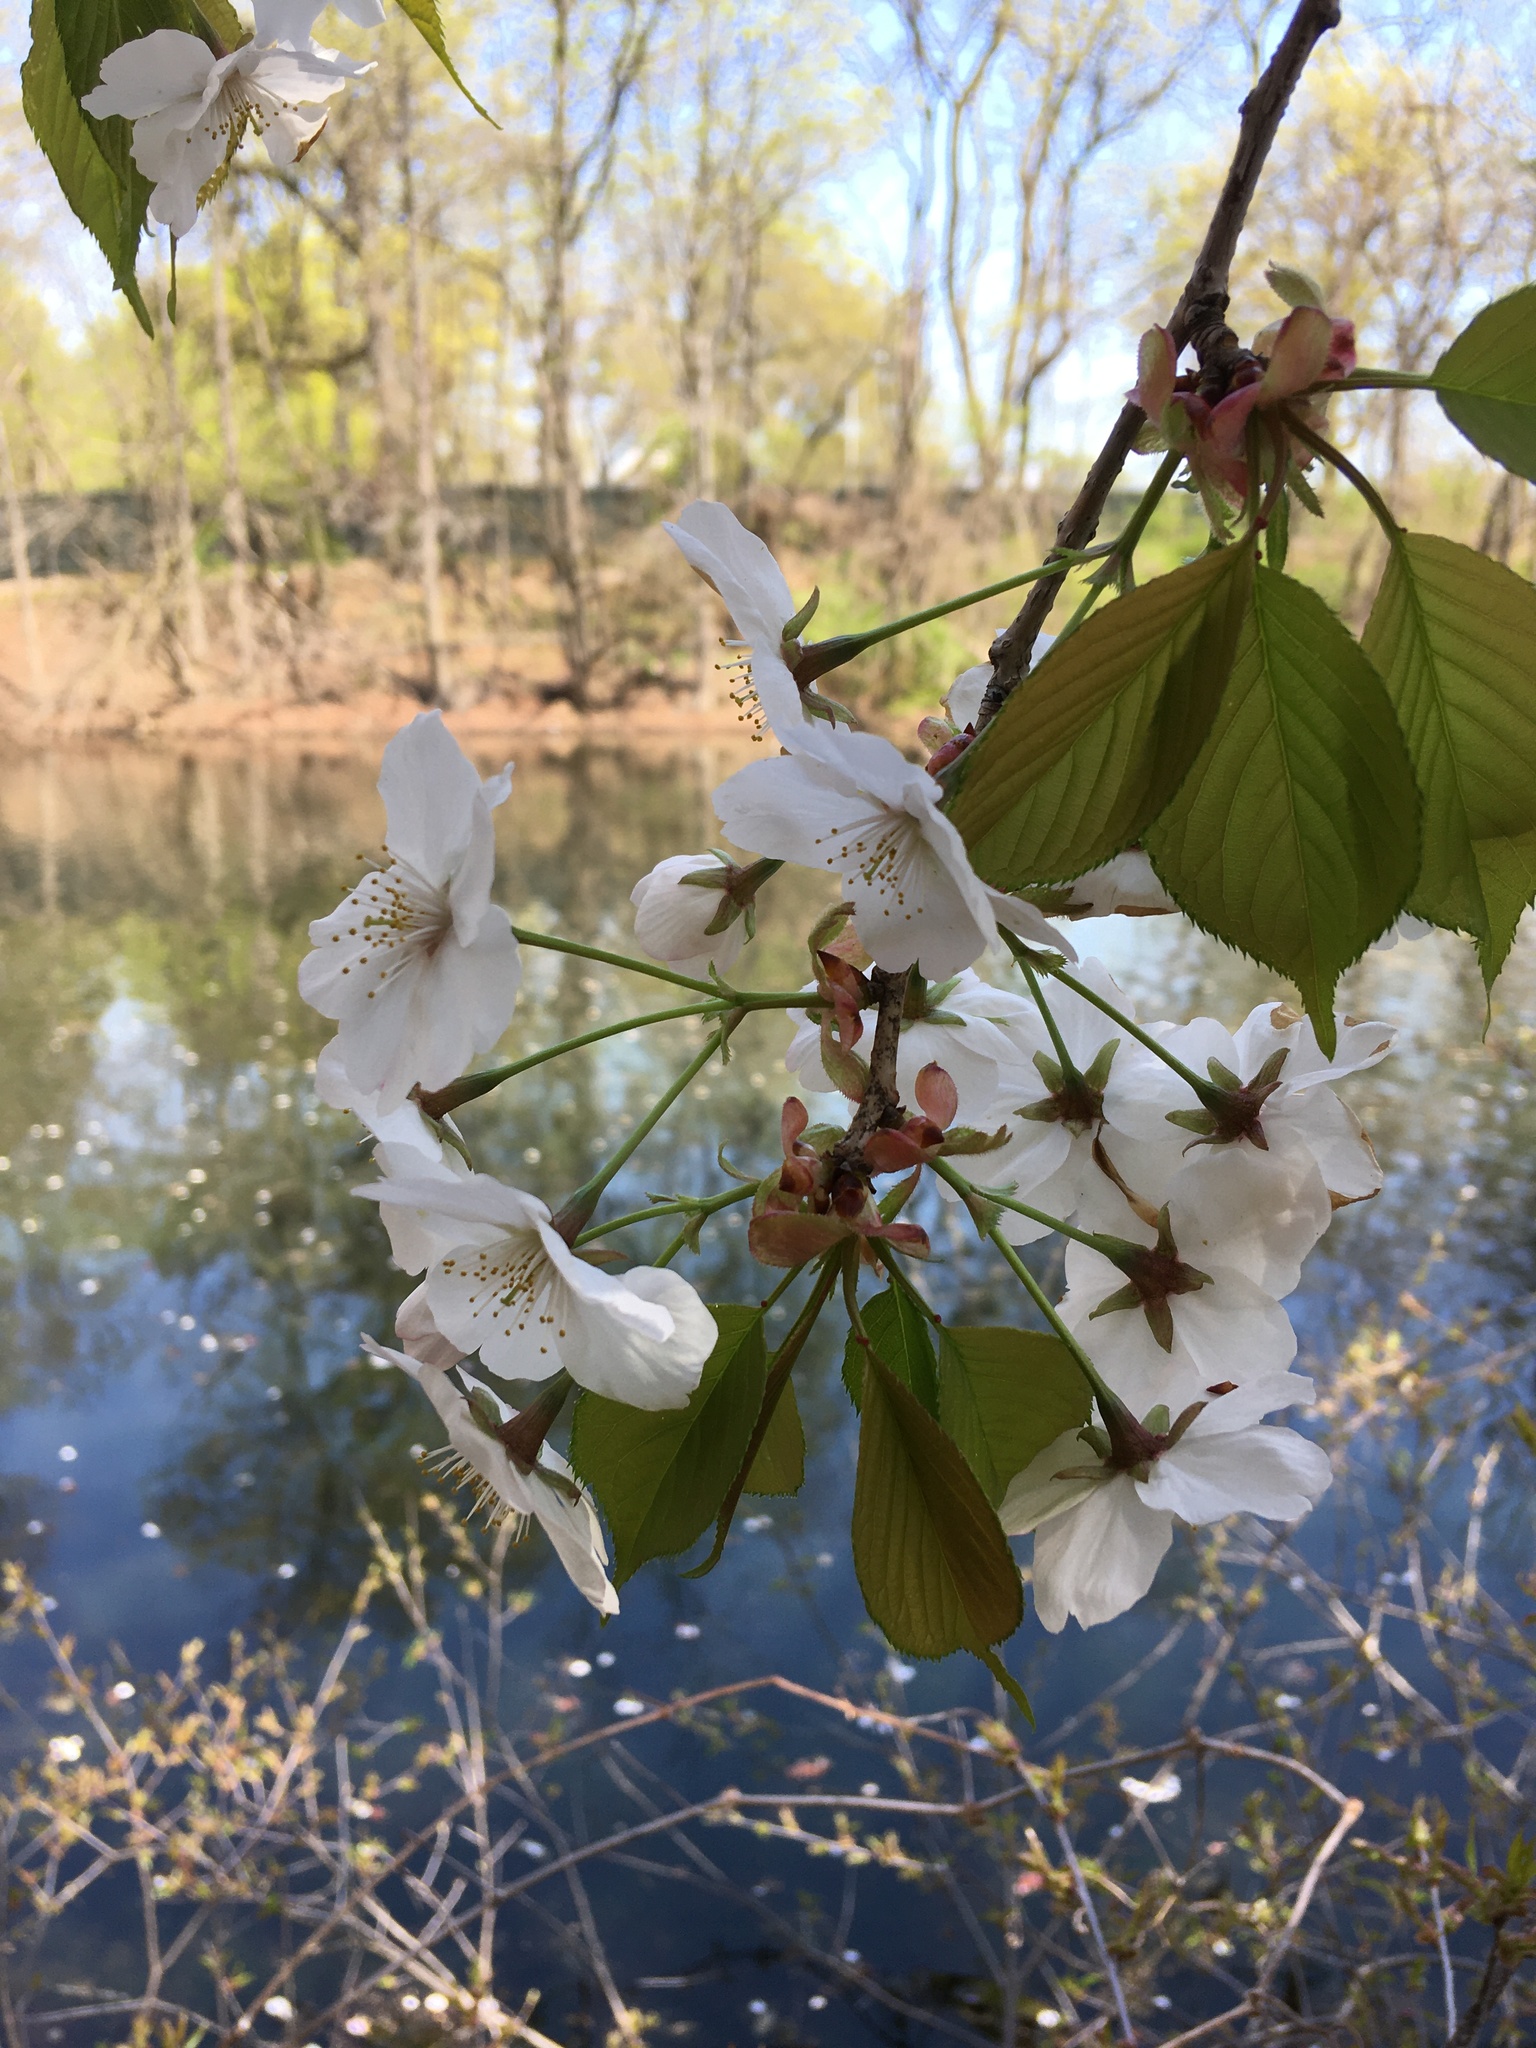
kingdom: Plantae
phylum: Tracheophyta
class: Magnoliopsida
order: Rosales
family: Rosaceae
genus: Prunus
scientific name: Prunus speciosa
